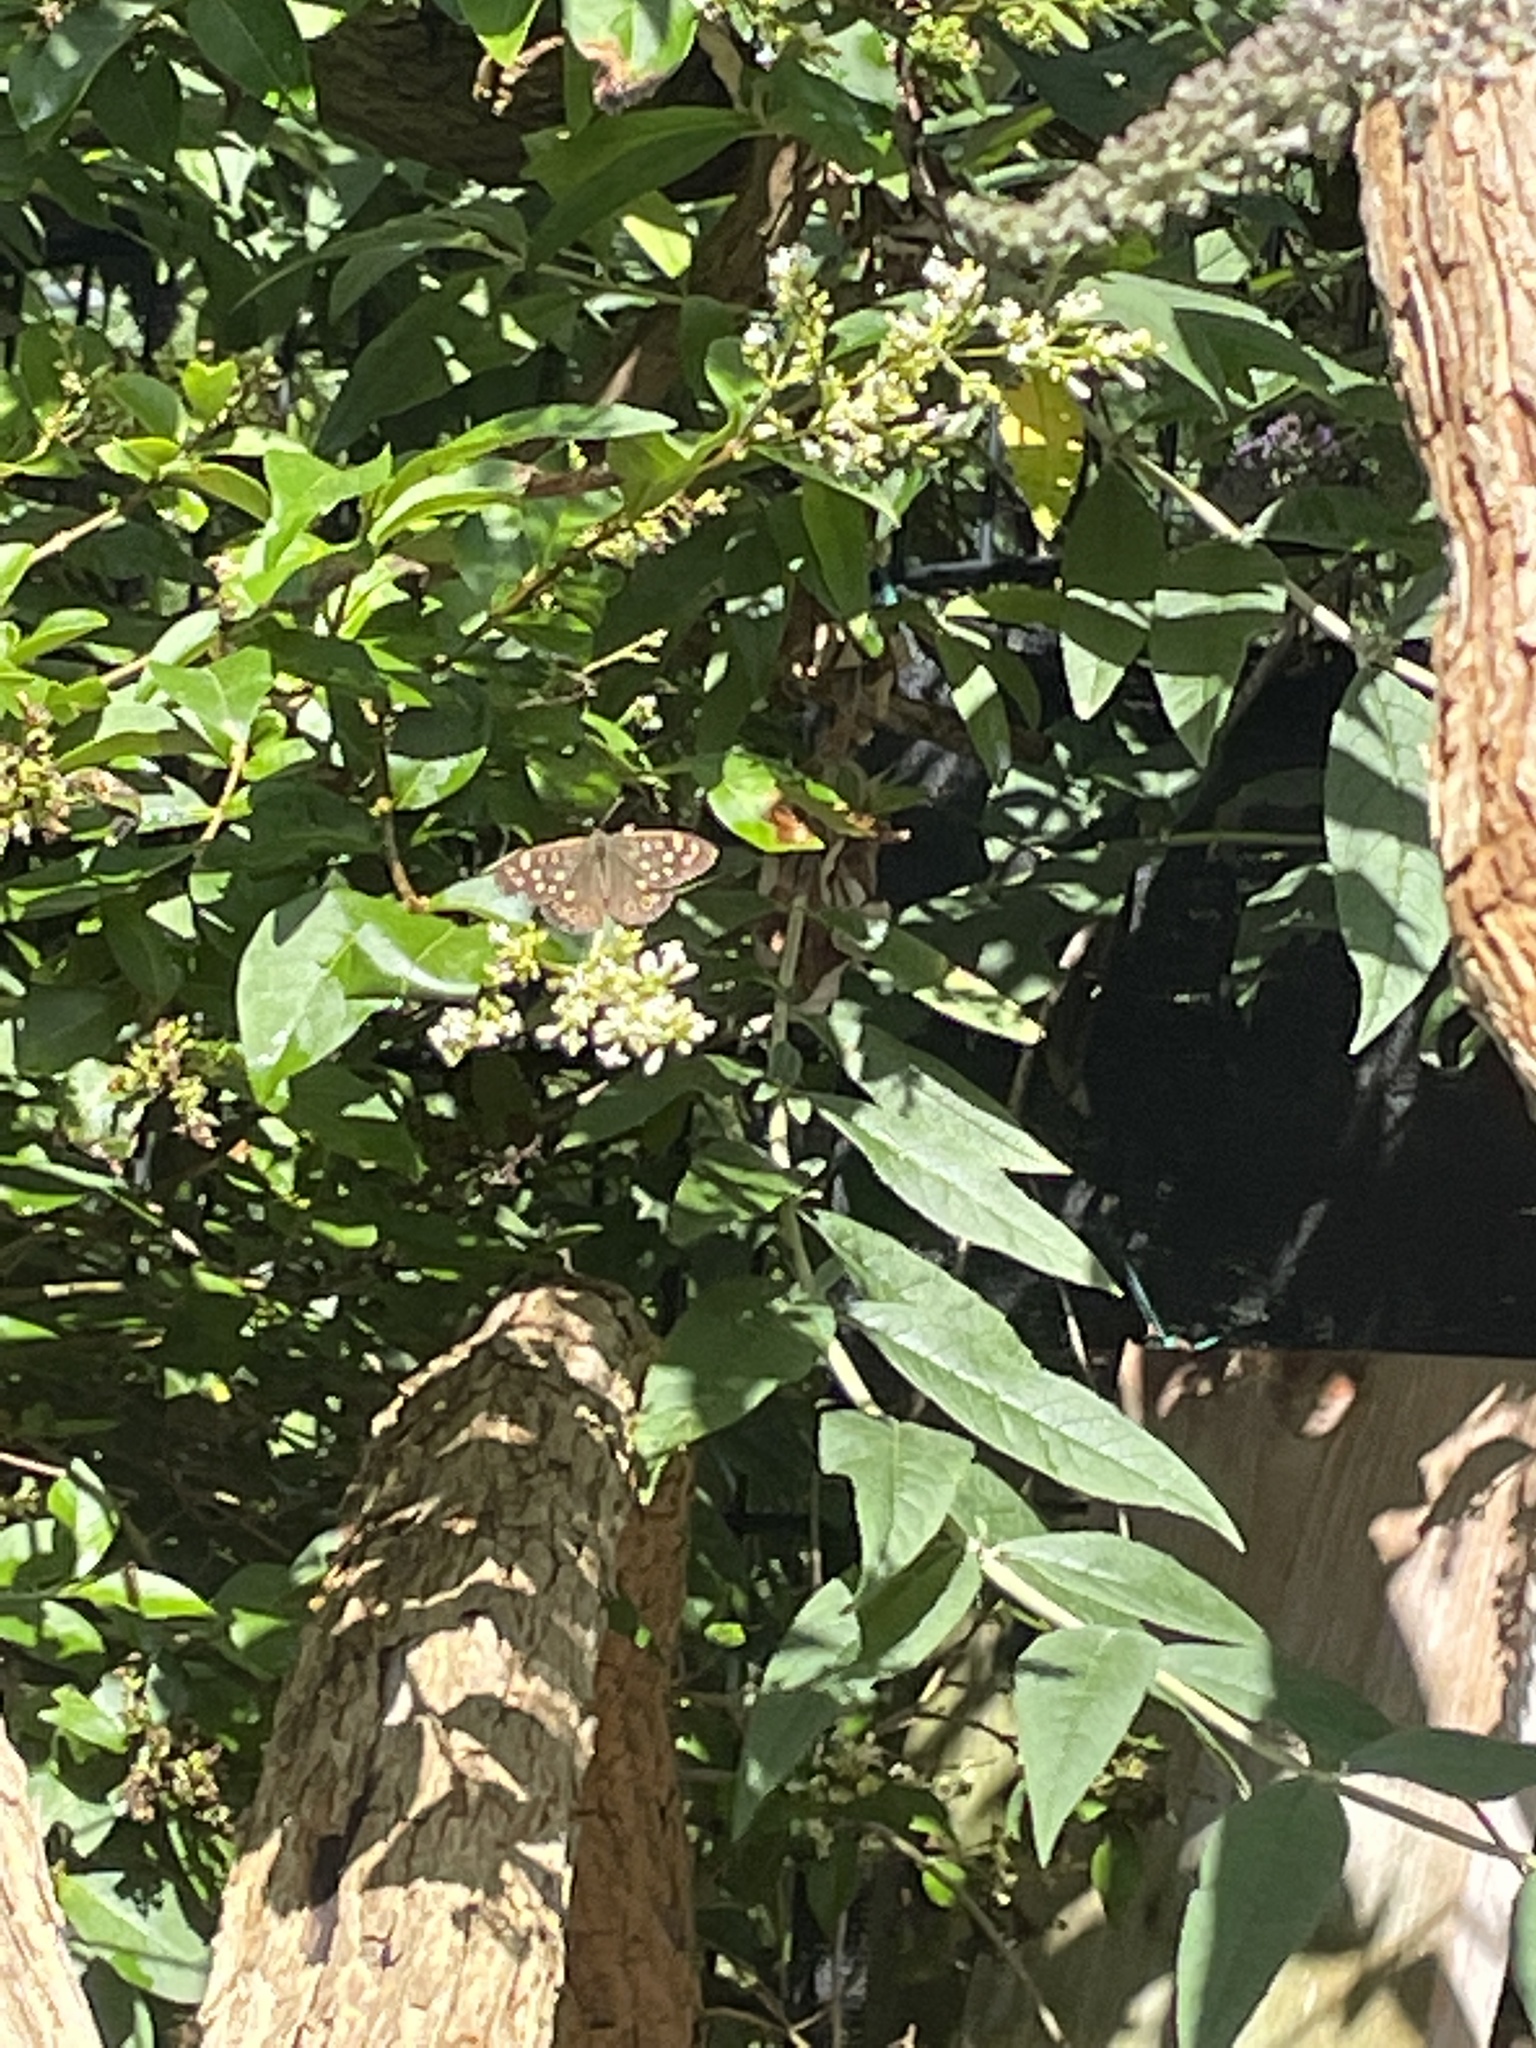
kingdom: Animalia
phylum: Arthropoda
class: Insecta
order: Lepidoptera
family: Nymphalidae
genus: Pararge
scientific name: Pararge aegeria
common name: Speckled wood
